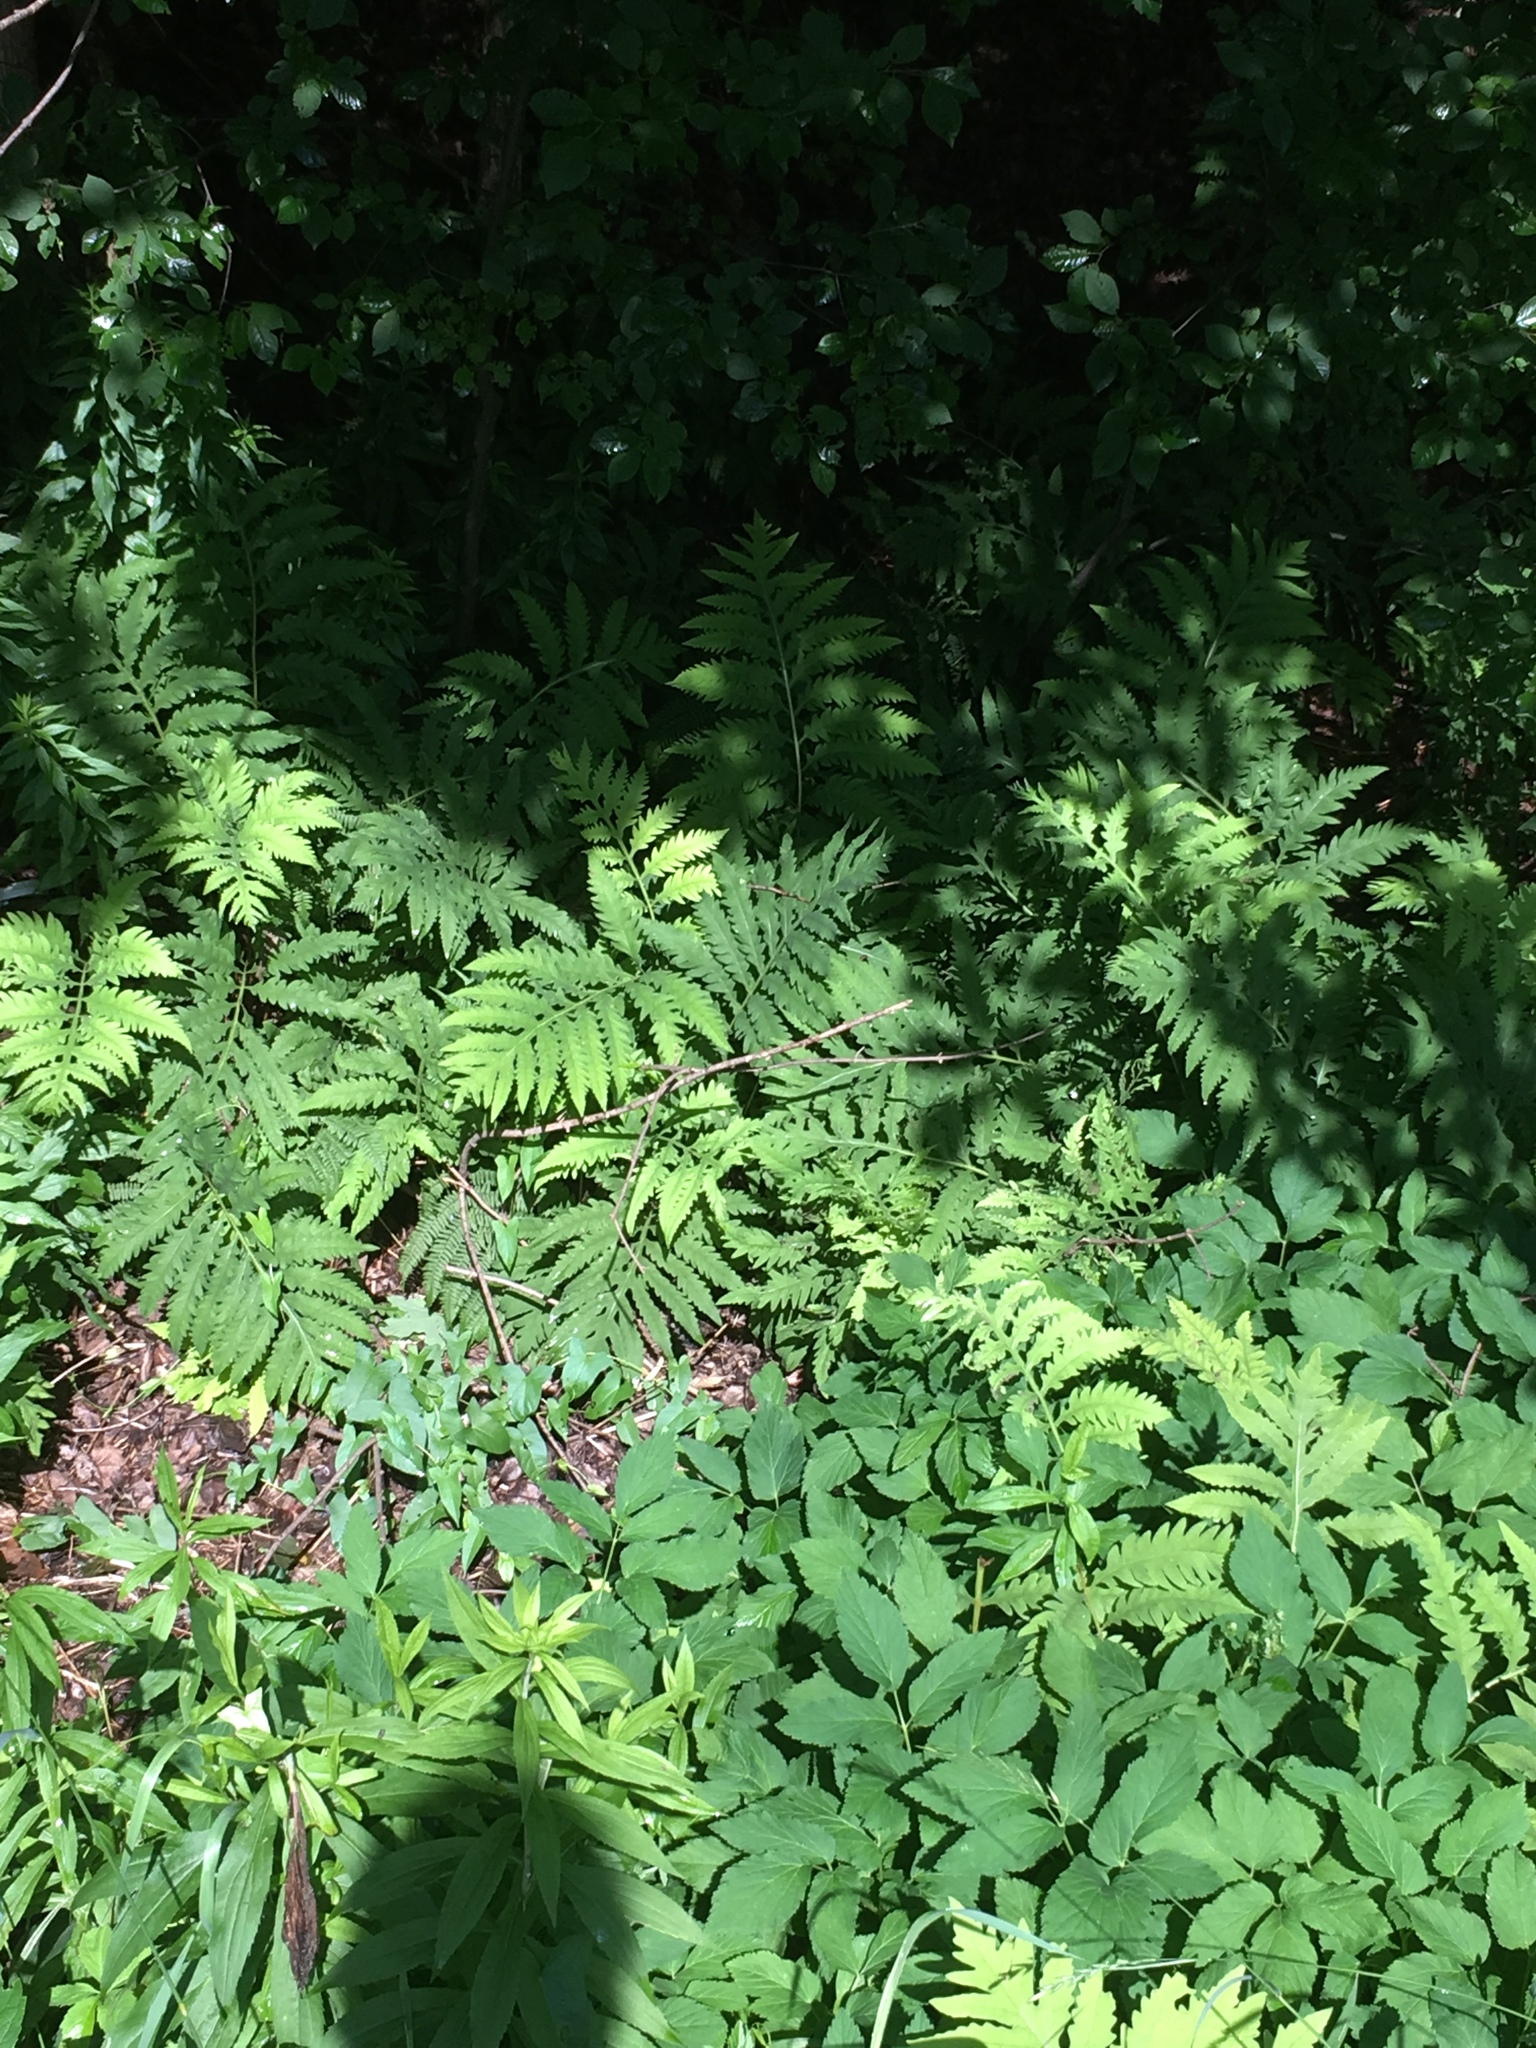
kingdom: Plantae
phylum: Tracheophyta
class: Magnoliopsida
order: Apiales
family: Apiaceae
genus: Aegopodium
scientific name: Aegopodium podagraria
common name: Ground-elder
